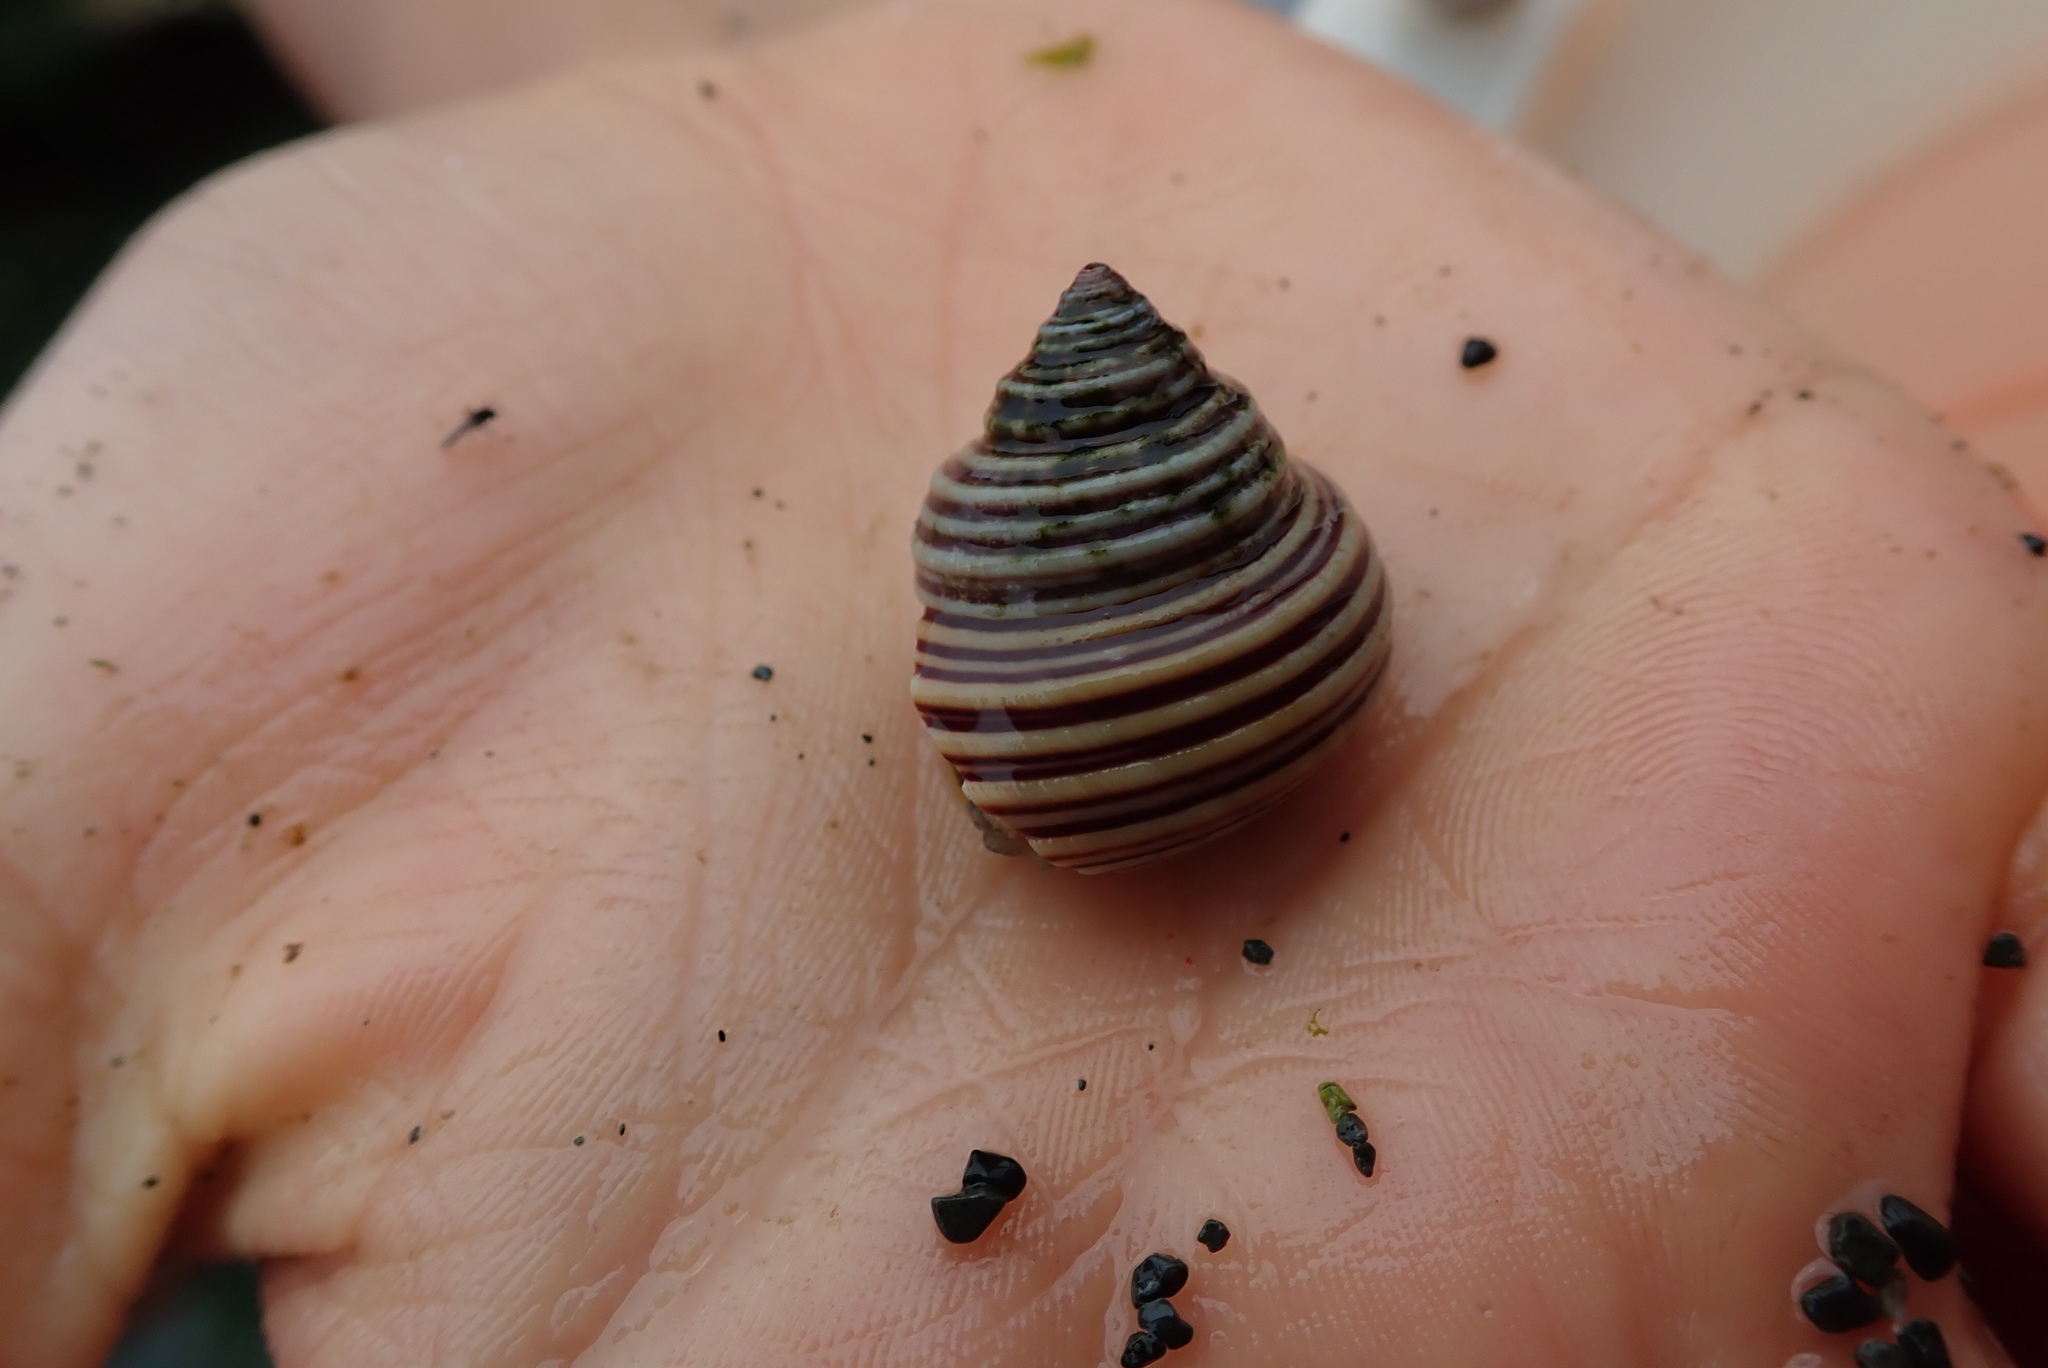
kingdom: Animalia
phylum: Mollusca
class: Gastropoda
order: Trochida
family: Calliostomatidae
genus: Calliostoma
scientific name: Calliostoma canaliculatum
